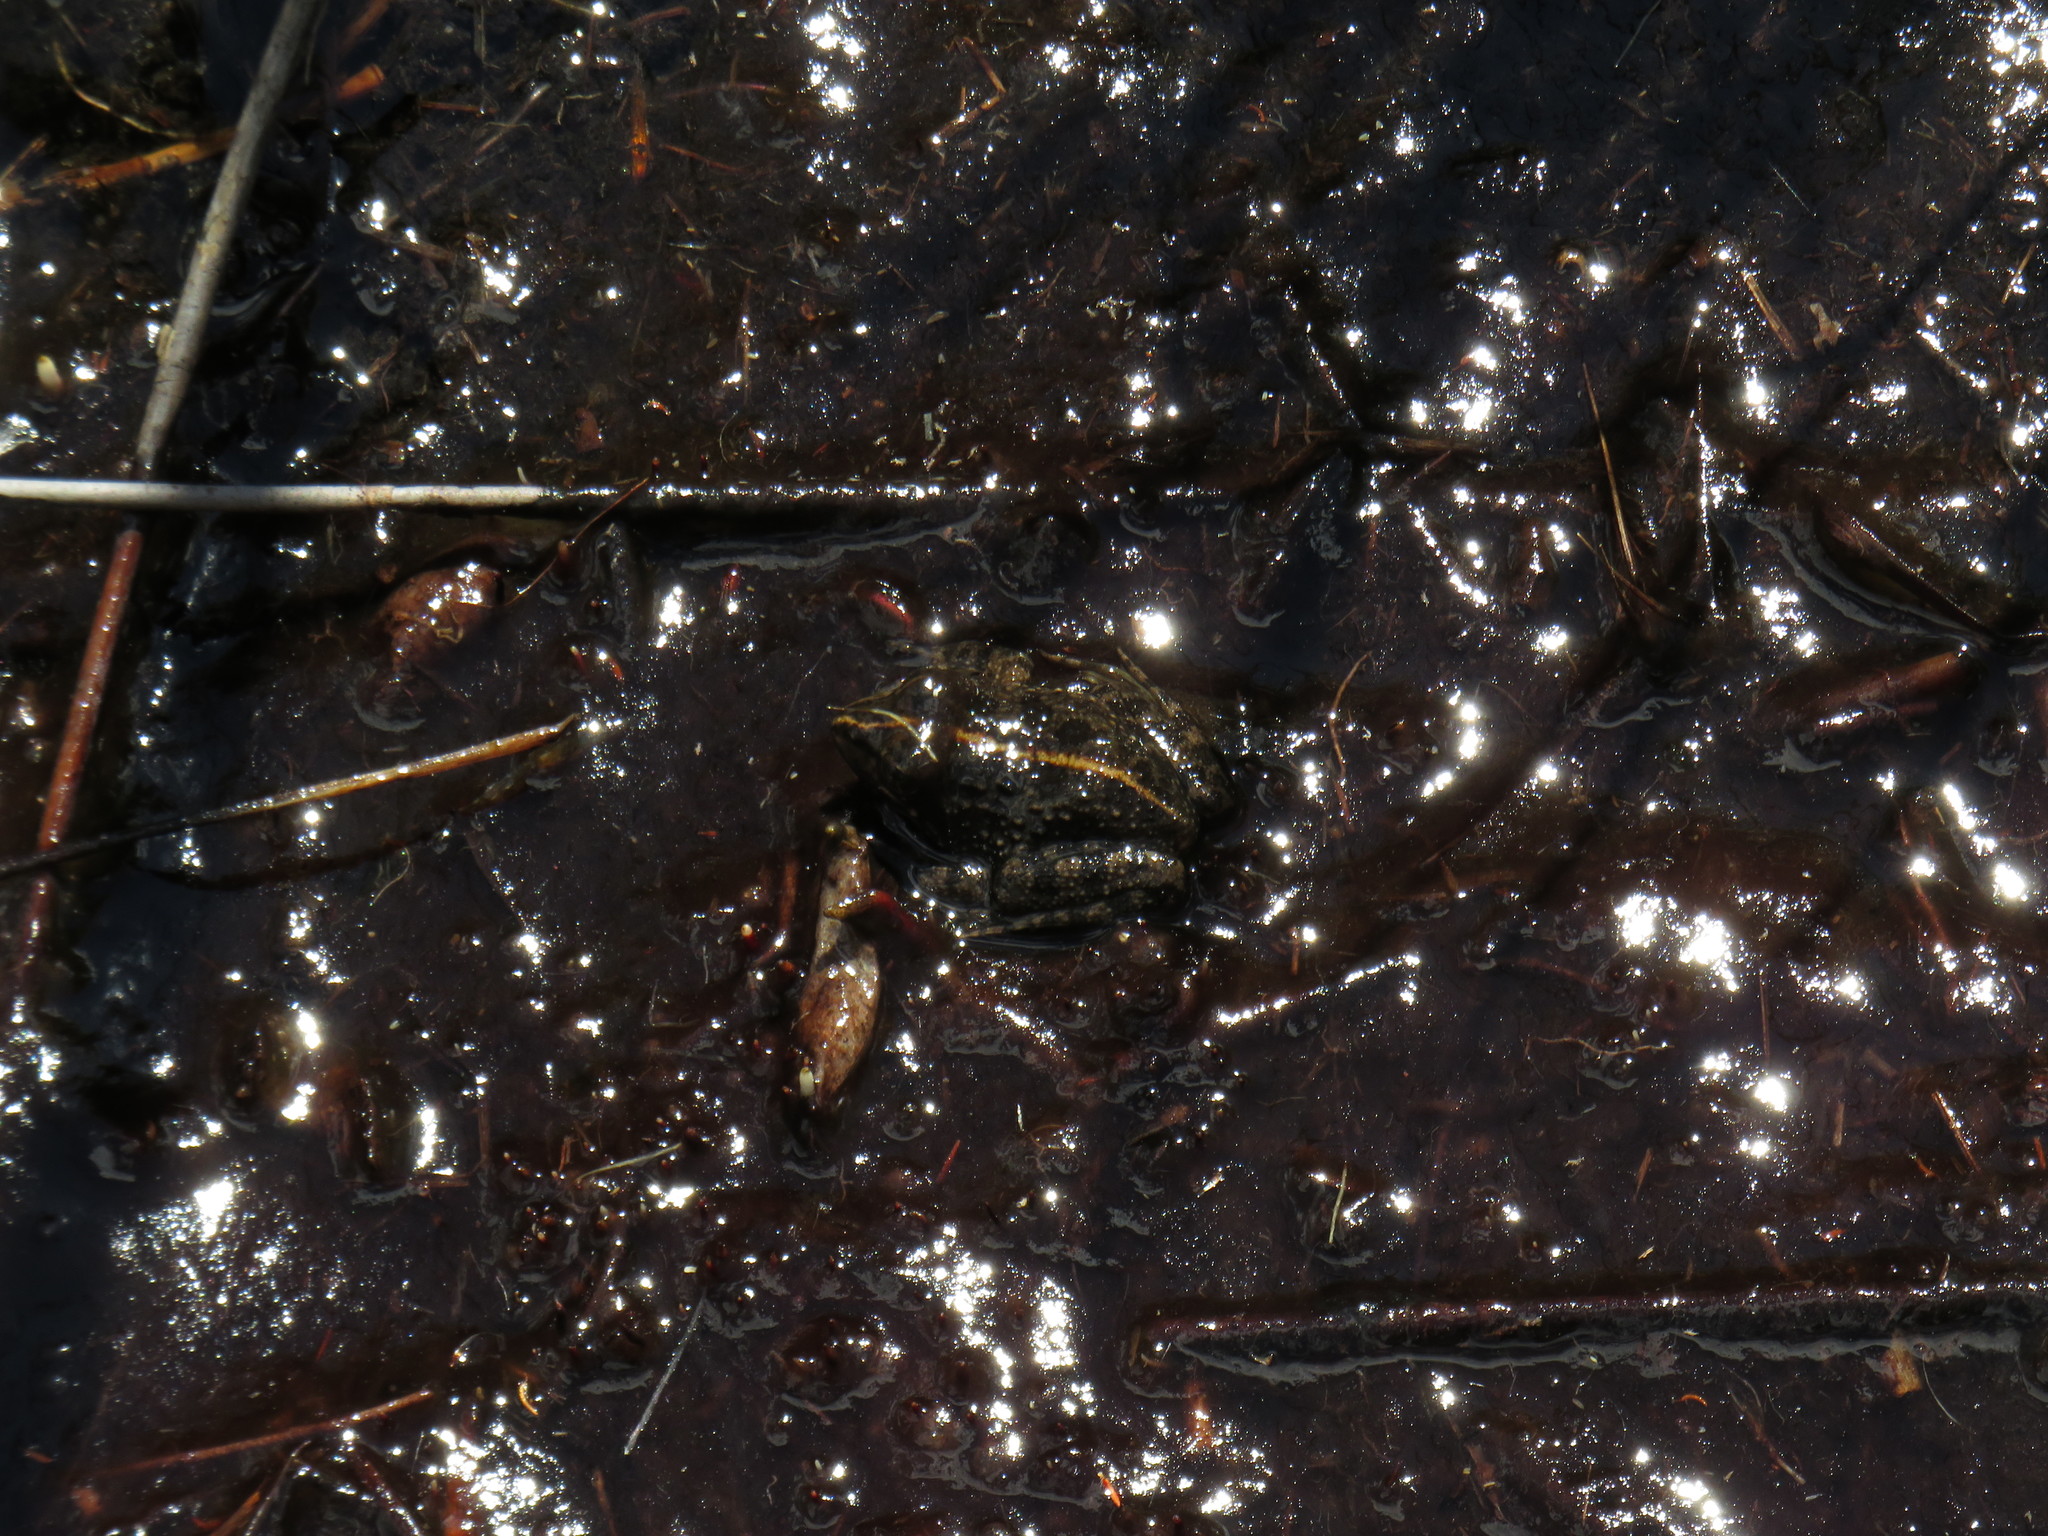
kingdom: Animalia
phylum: Chordata
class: Amphibia
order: Anura
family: Pyxicephalidae
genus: Amietia
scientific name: Amietia fuscigula
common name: Cape rana
